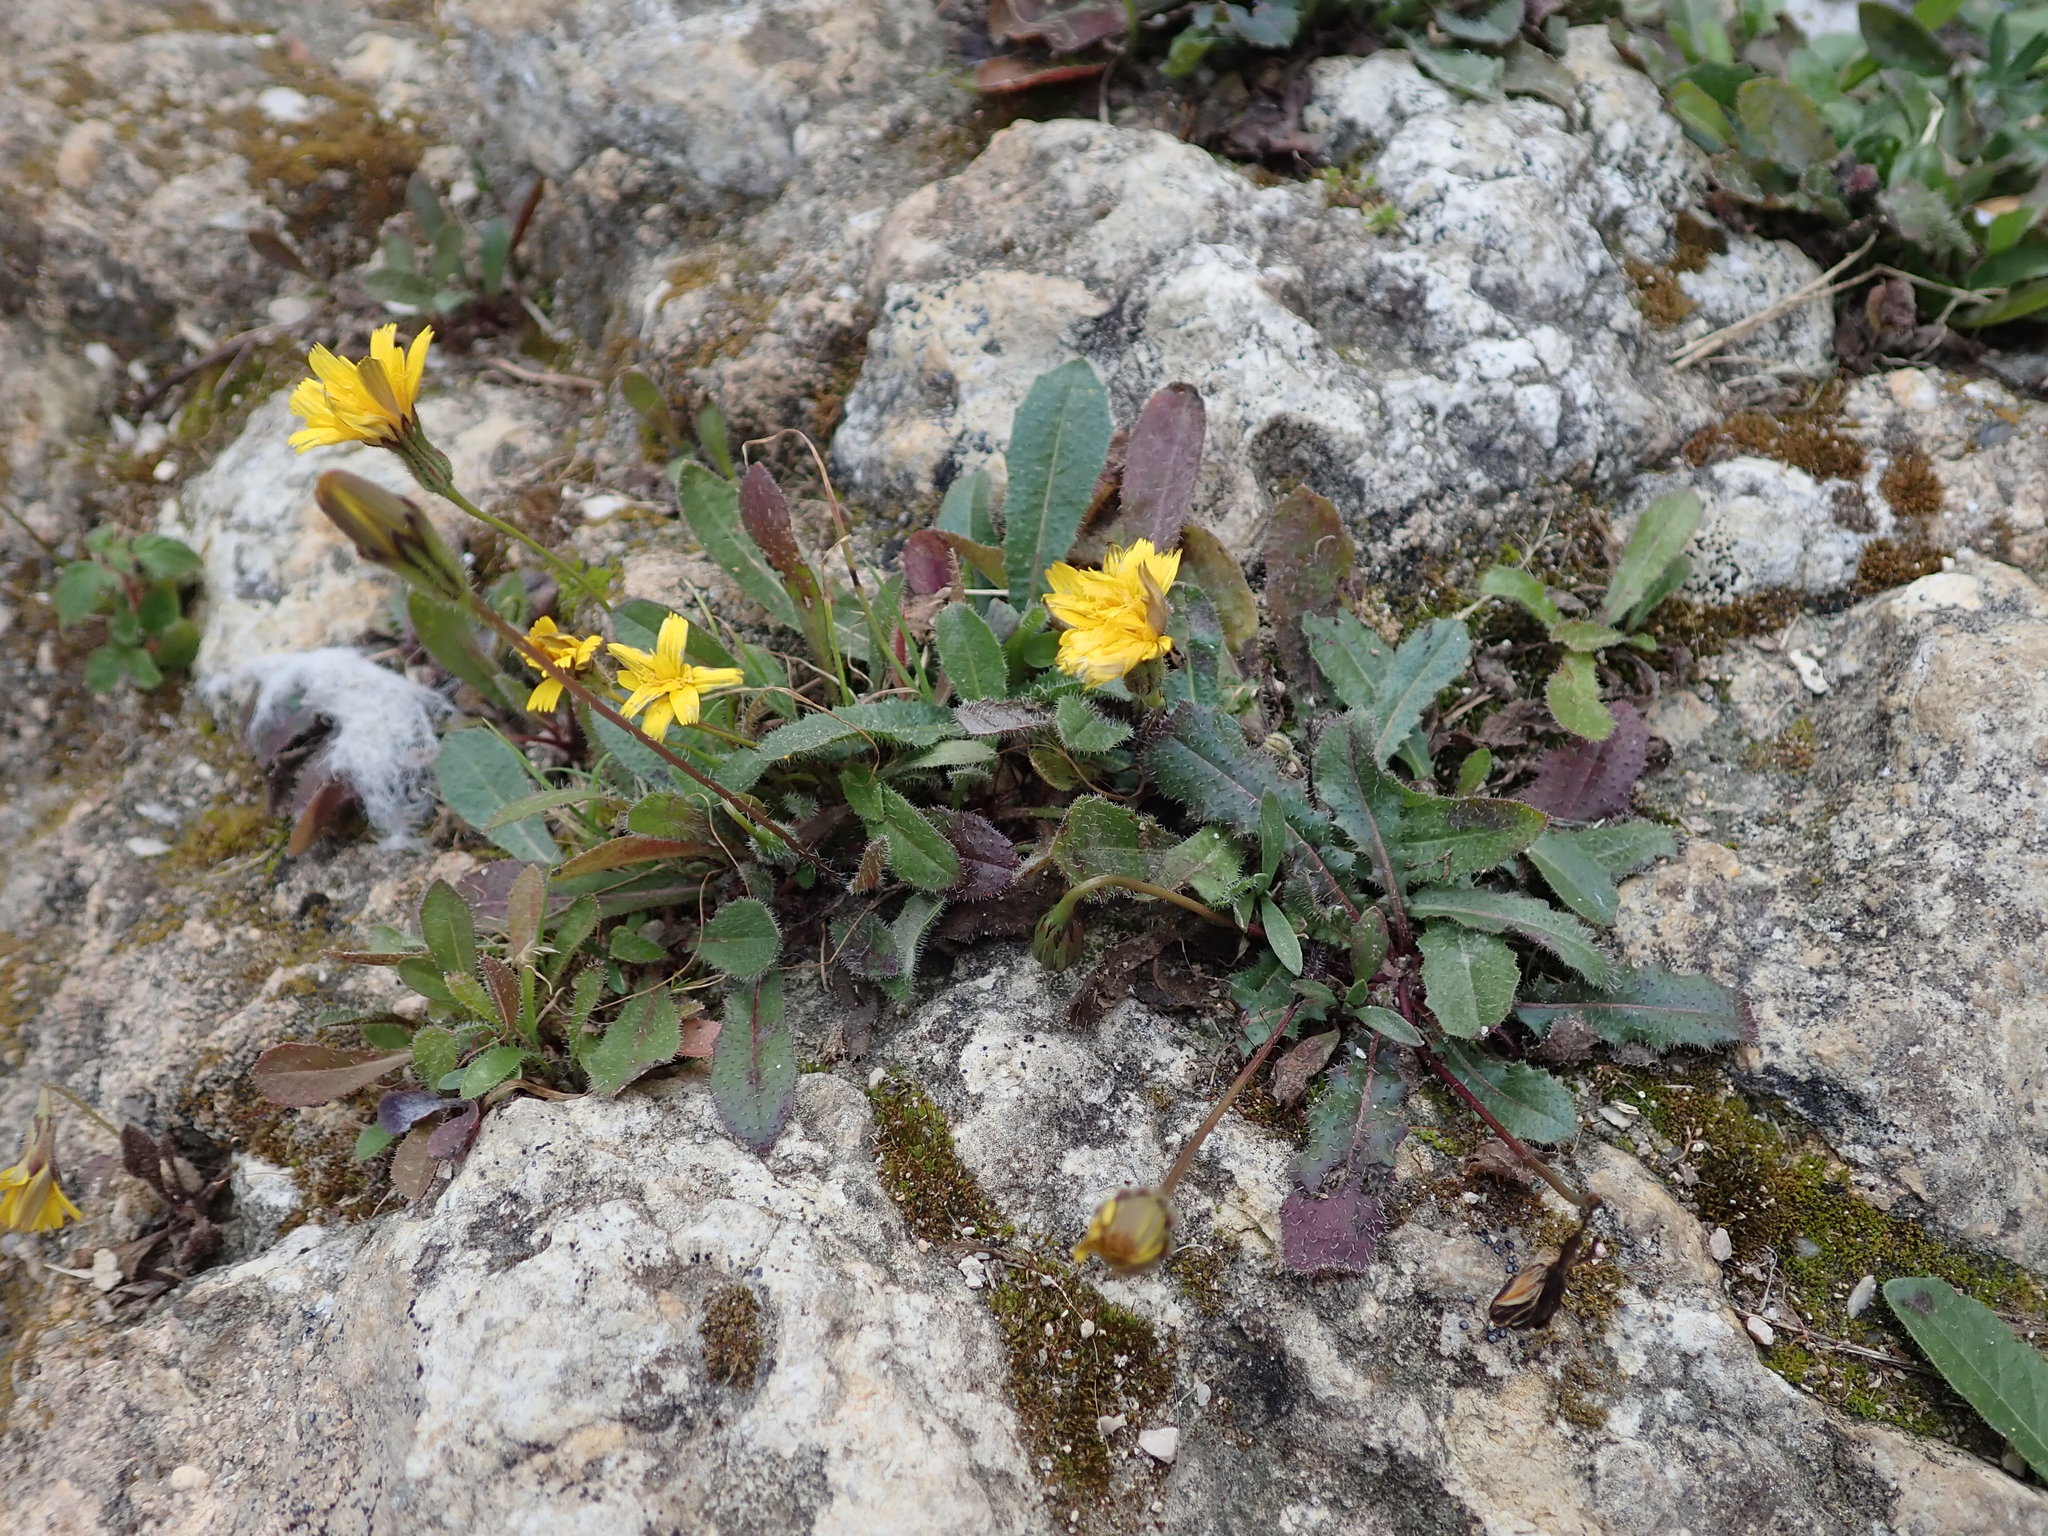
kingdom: Plantae
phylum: Tracheophyta
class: Magnoliopsida
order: Asterales
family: Asteraceae
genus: Urospermum
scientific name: Urospermum picroides
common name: False hawkbit
